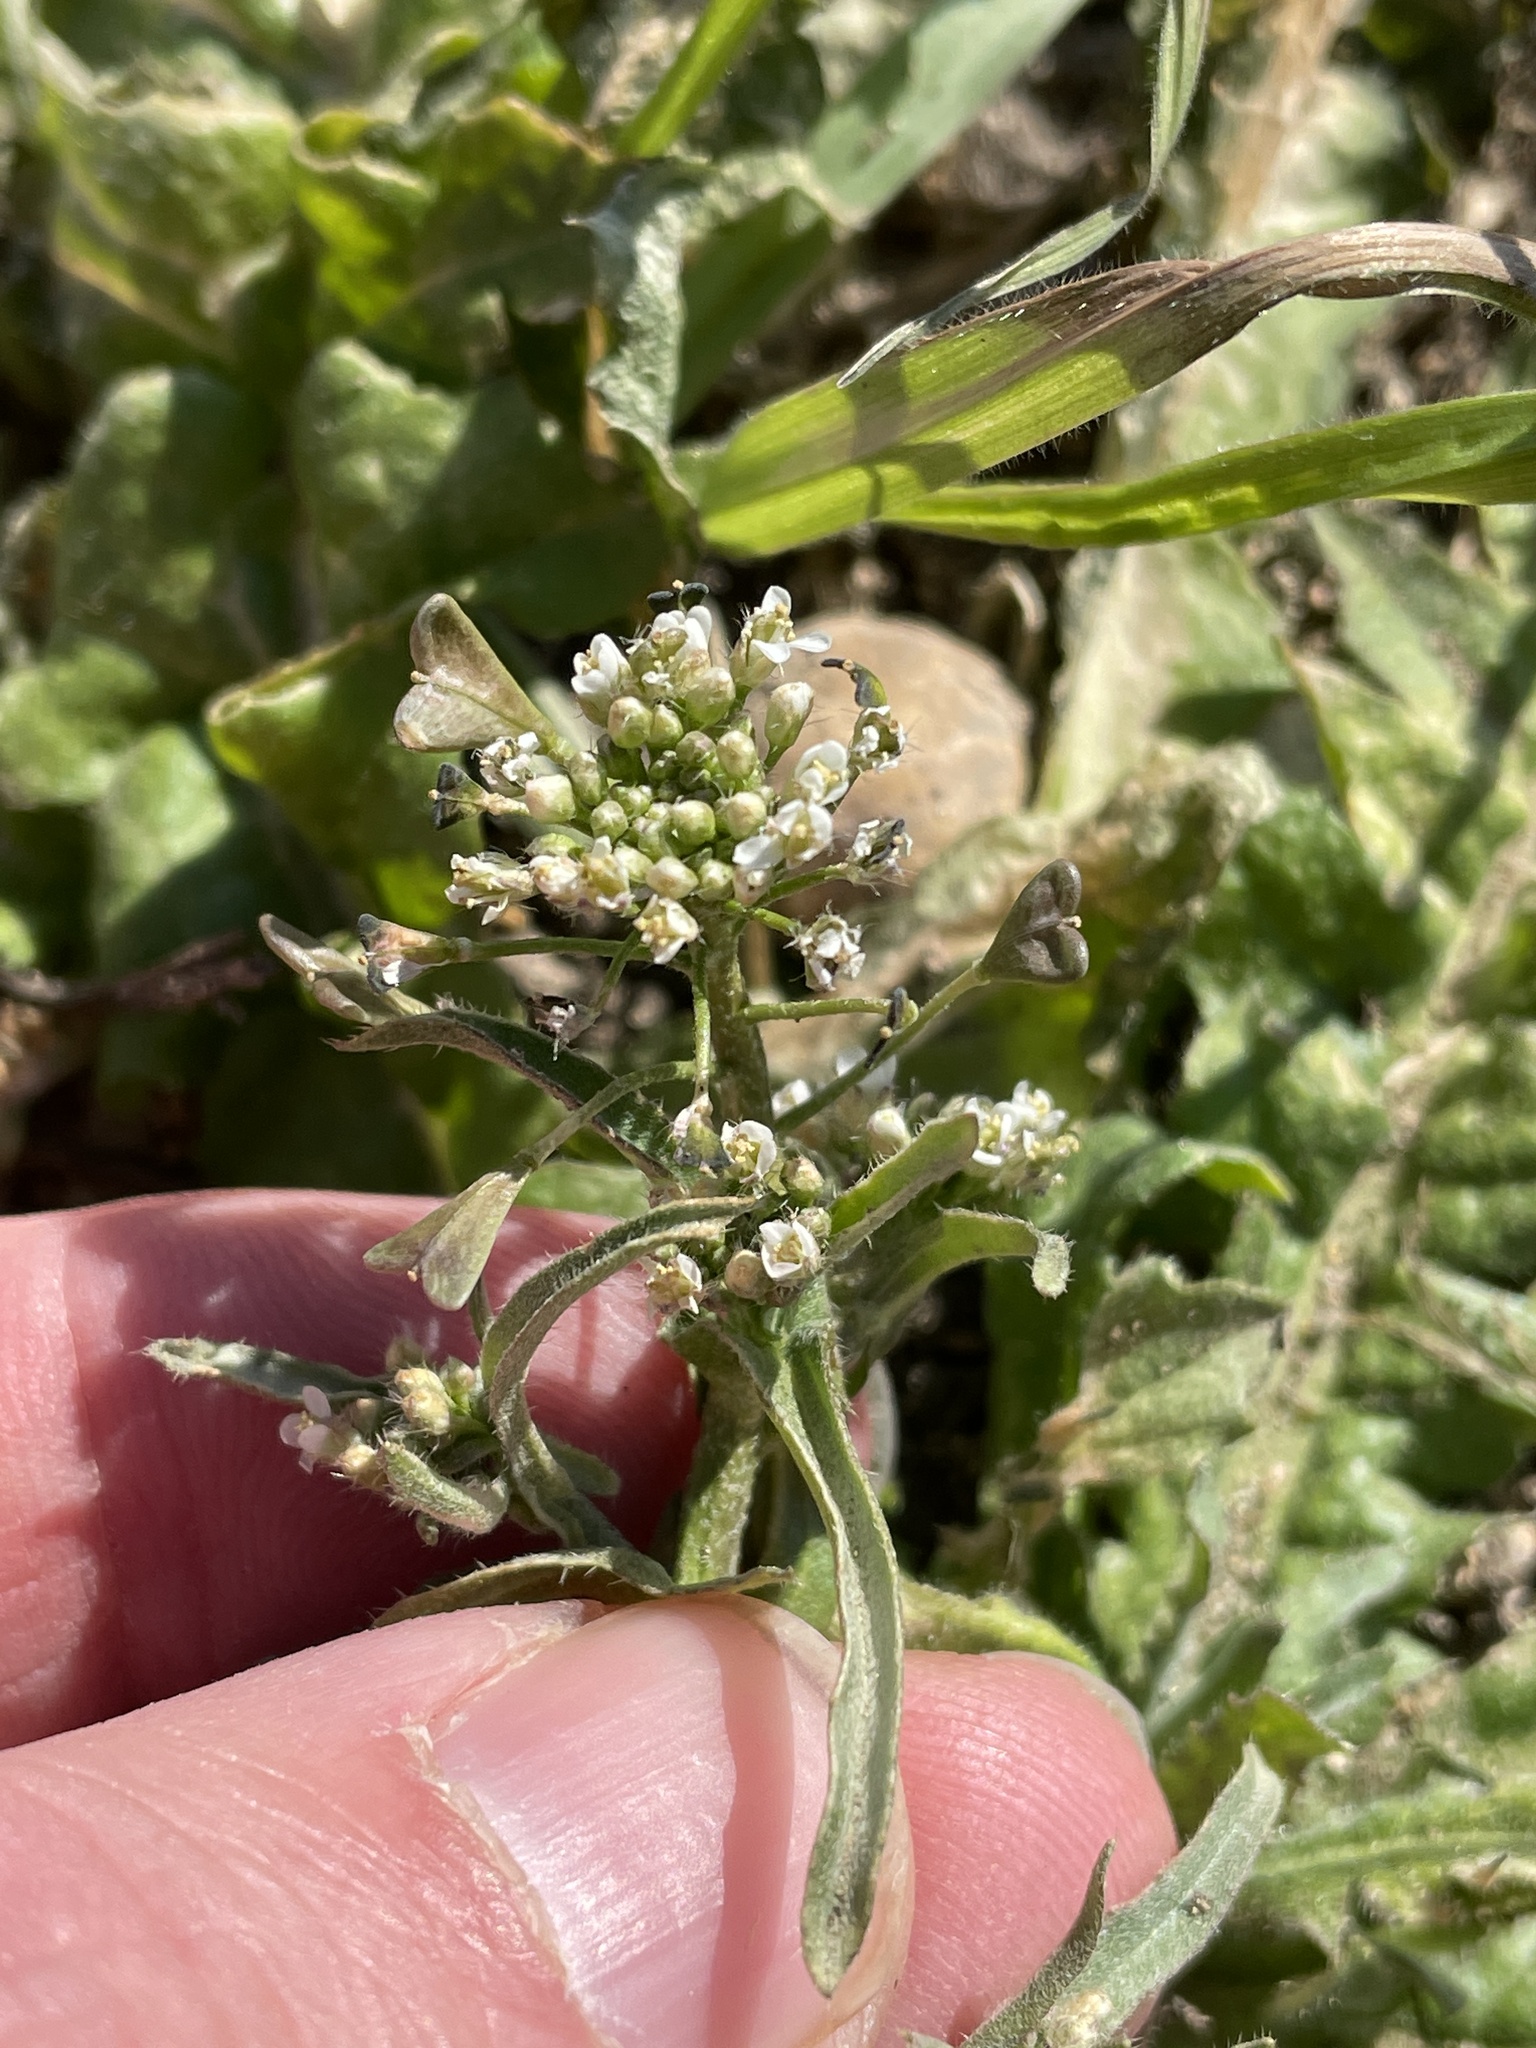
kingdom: Plantae
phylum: Tracheophyta
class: Magnoliopsida
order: Brassicales
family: Brassicaceae
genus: Capsella
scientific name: Capsella bursa-pastoris
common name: Shepherd's purse
